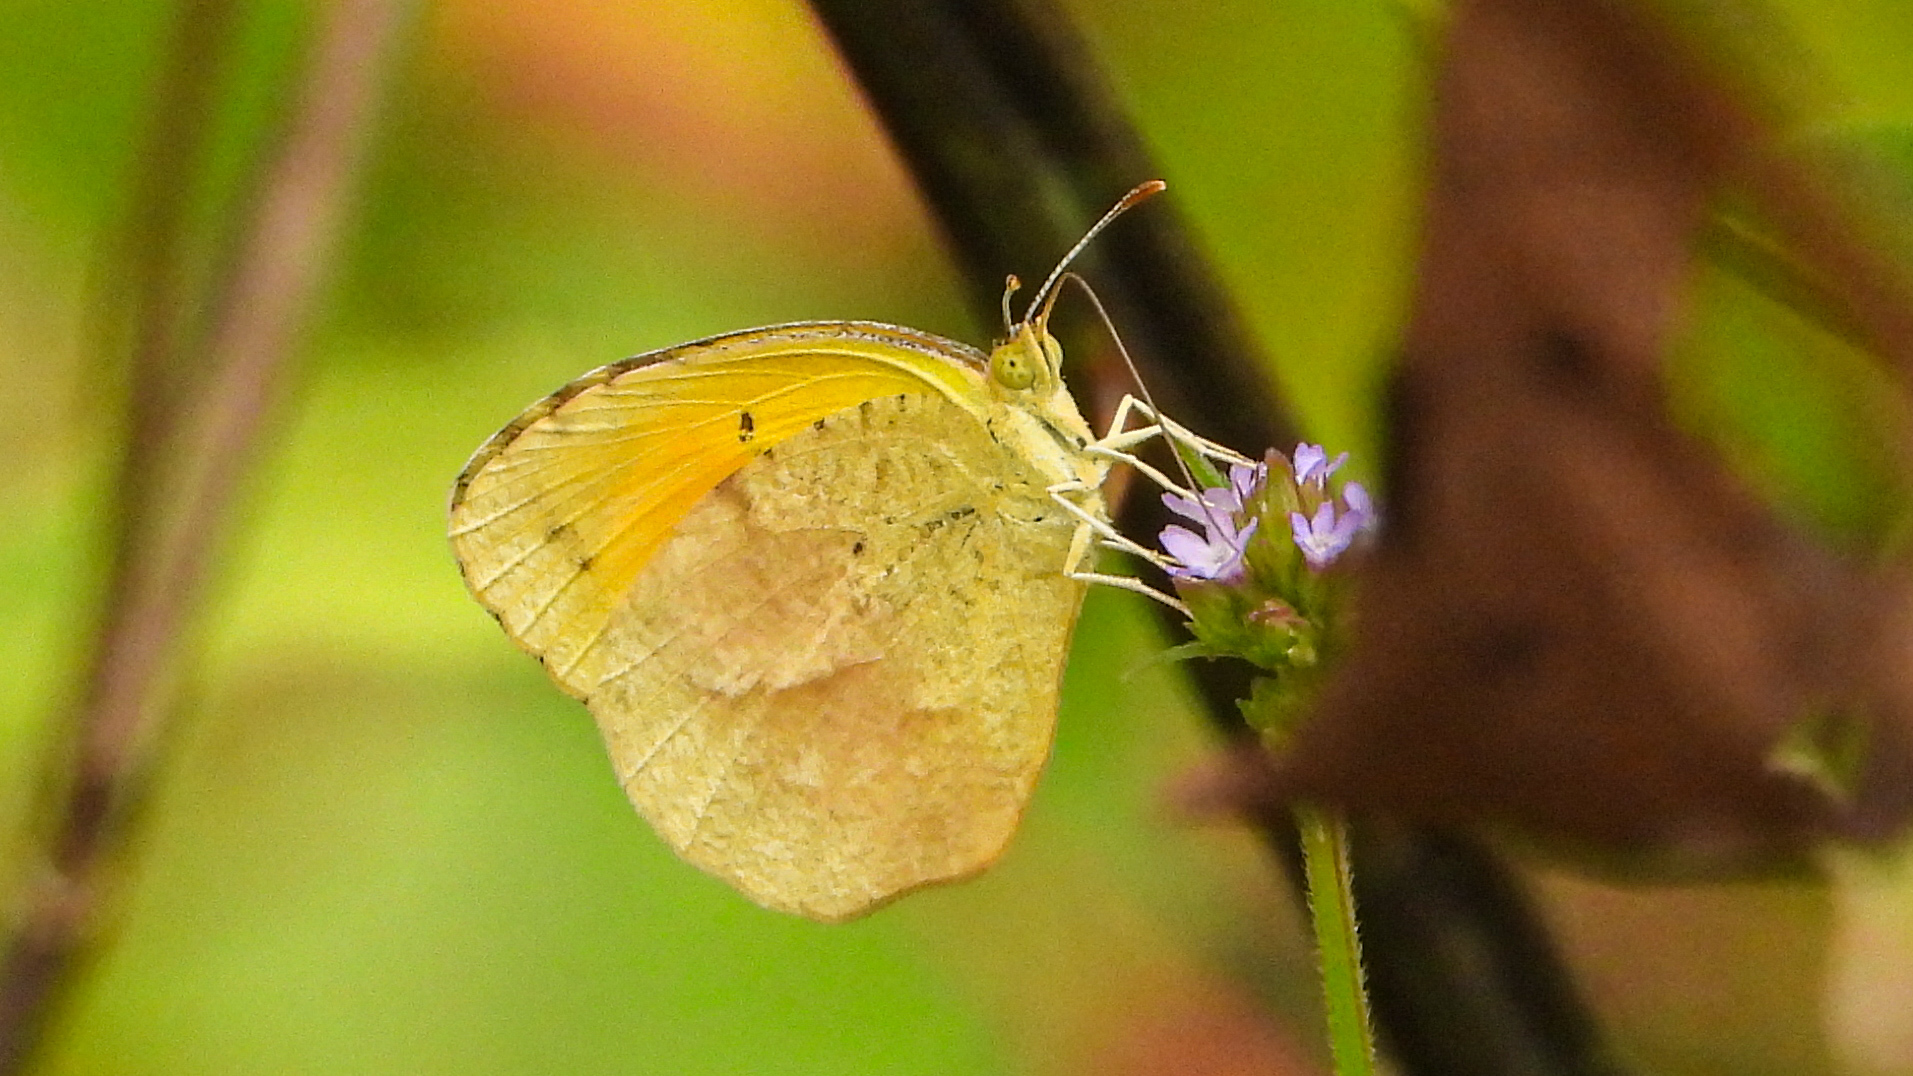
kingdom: Animalia
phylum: Arthropoda
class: Insecta
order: Lepidoptera
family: Pieridae
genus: Abaeis
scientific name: Abaeis nicippe
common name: Sleepy orange
